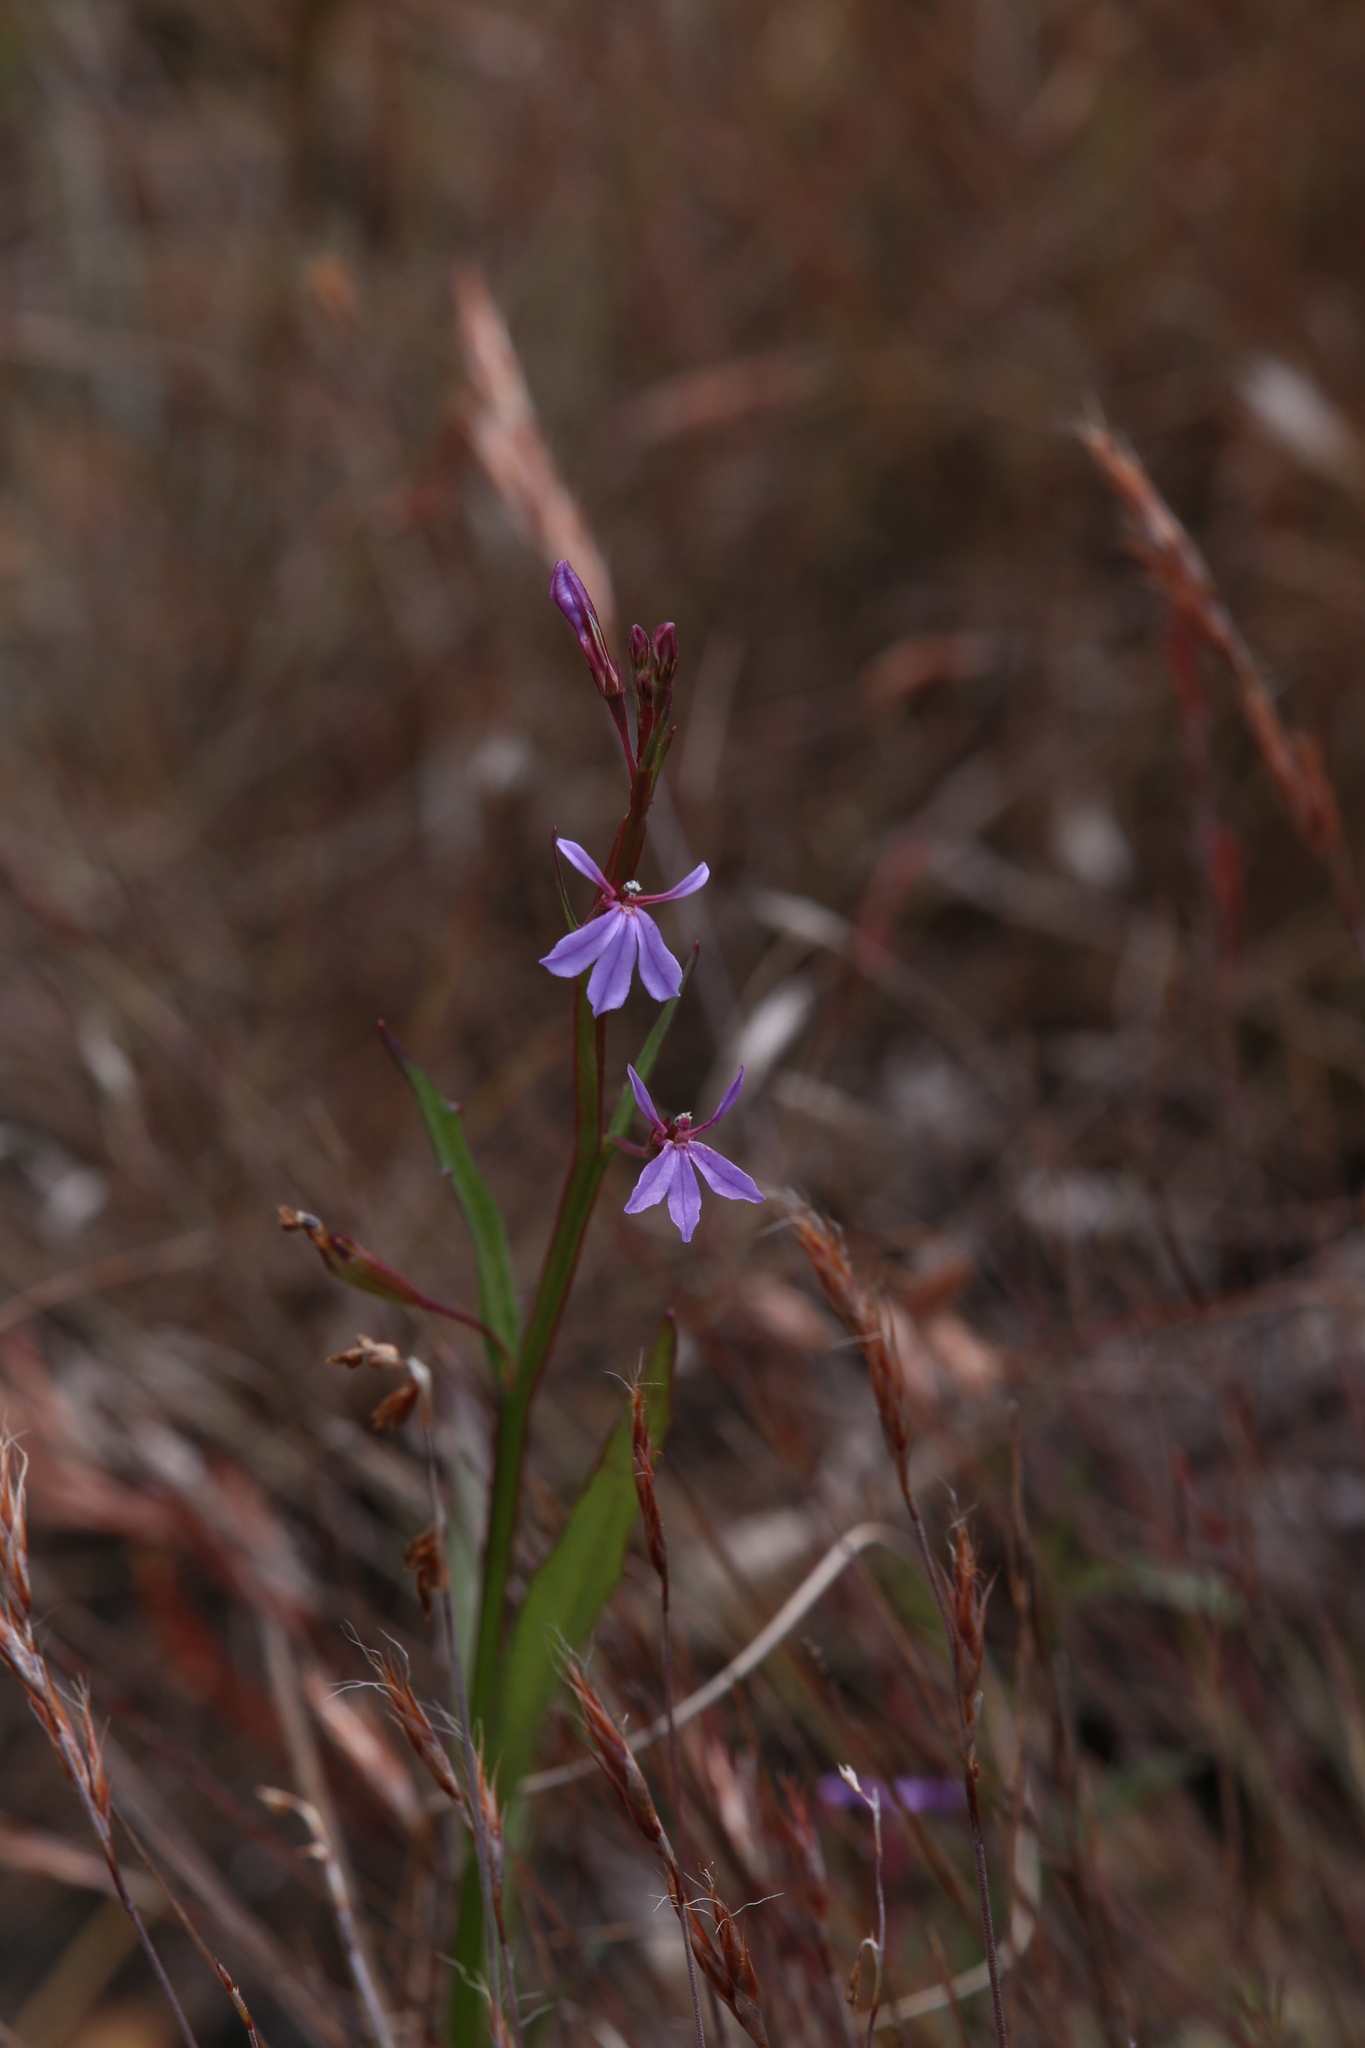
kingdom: Plantae
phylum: Tracheophyta
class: Magnoliopsida
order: Asterales
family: Campanulaceae
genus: Lobelia
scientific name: Lobelia anceps
